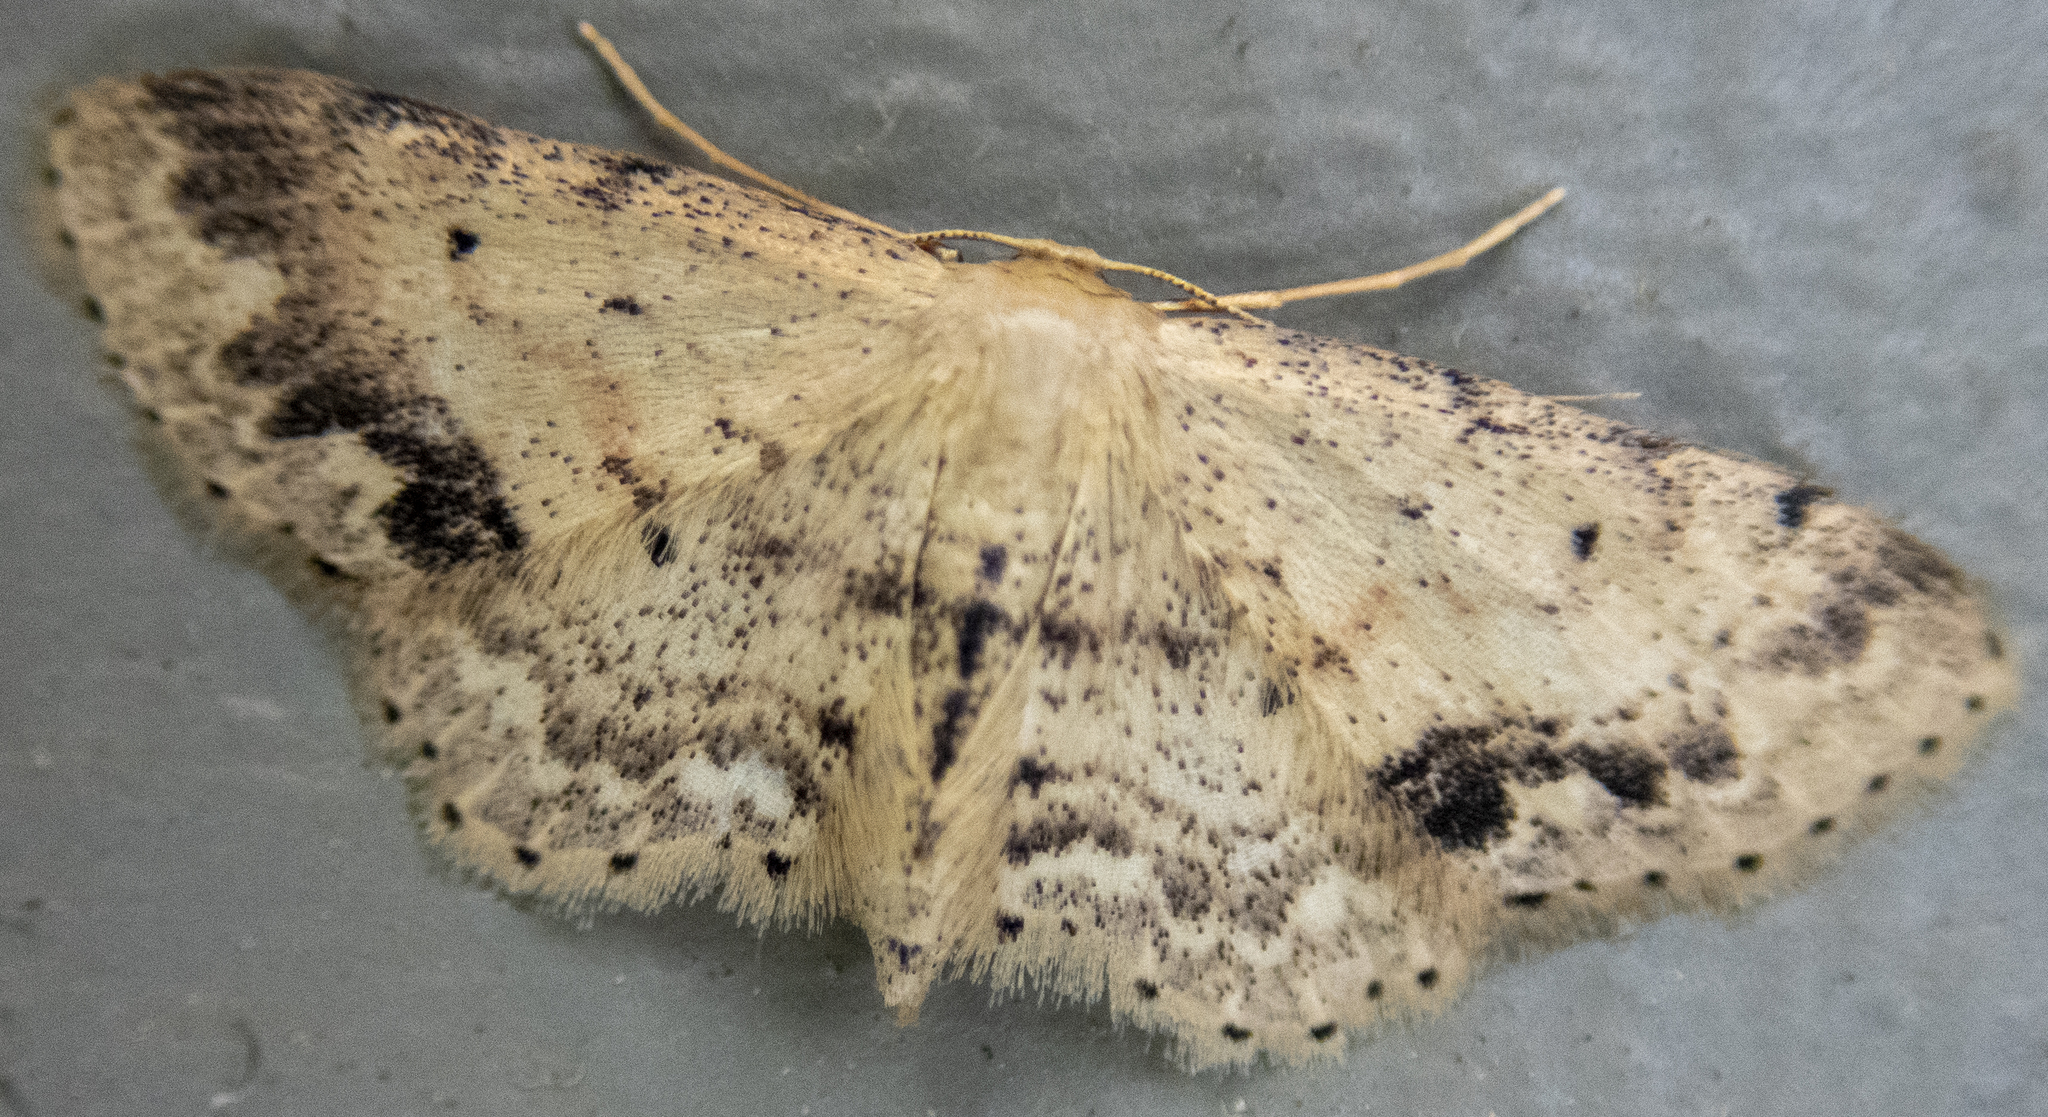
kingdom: Animalia
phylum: Arthropoda
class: Insecta
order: Lepidoptera
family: Geometridae
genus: Idaea
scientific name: Idaea dimidiata
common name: Single-dotted wave
